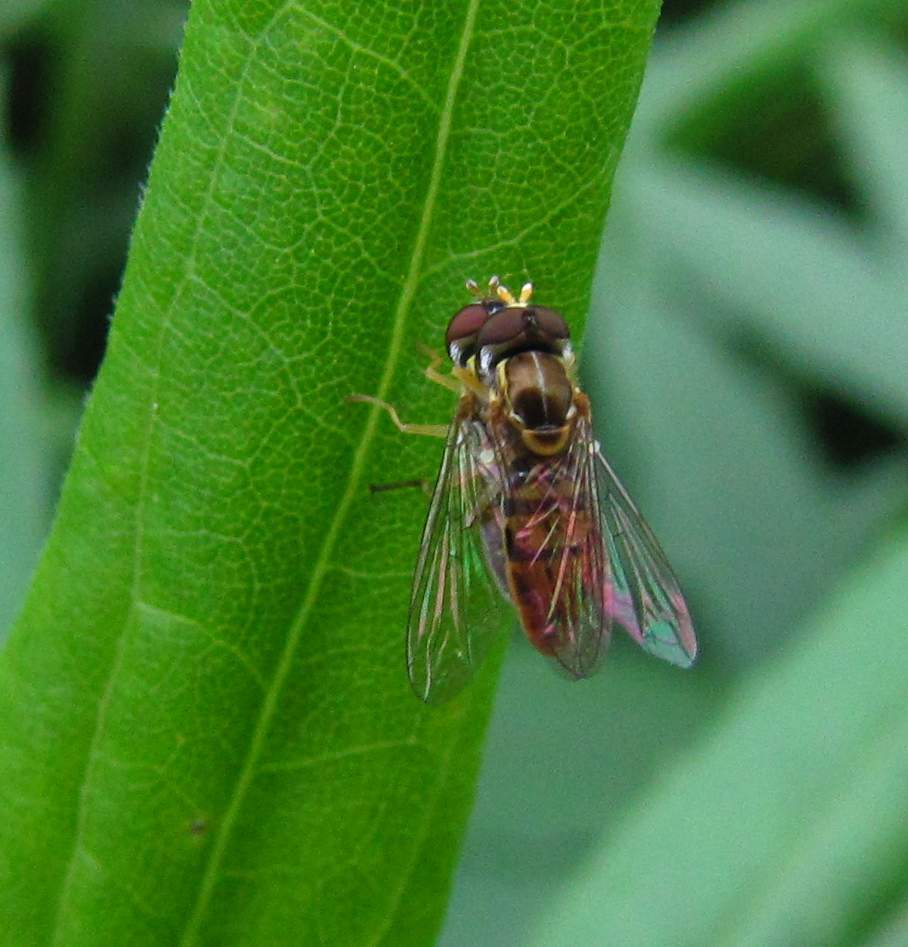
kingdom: Animalia
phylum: Arthropoda
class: Insecta
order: Diptera
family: Syrphidae
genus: Toxomerus
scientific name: Toxomerus marginatus
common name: Syrphid fly
